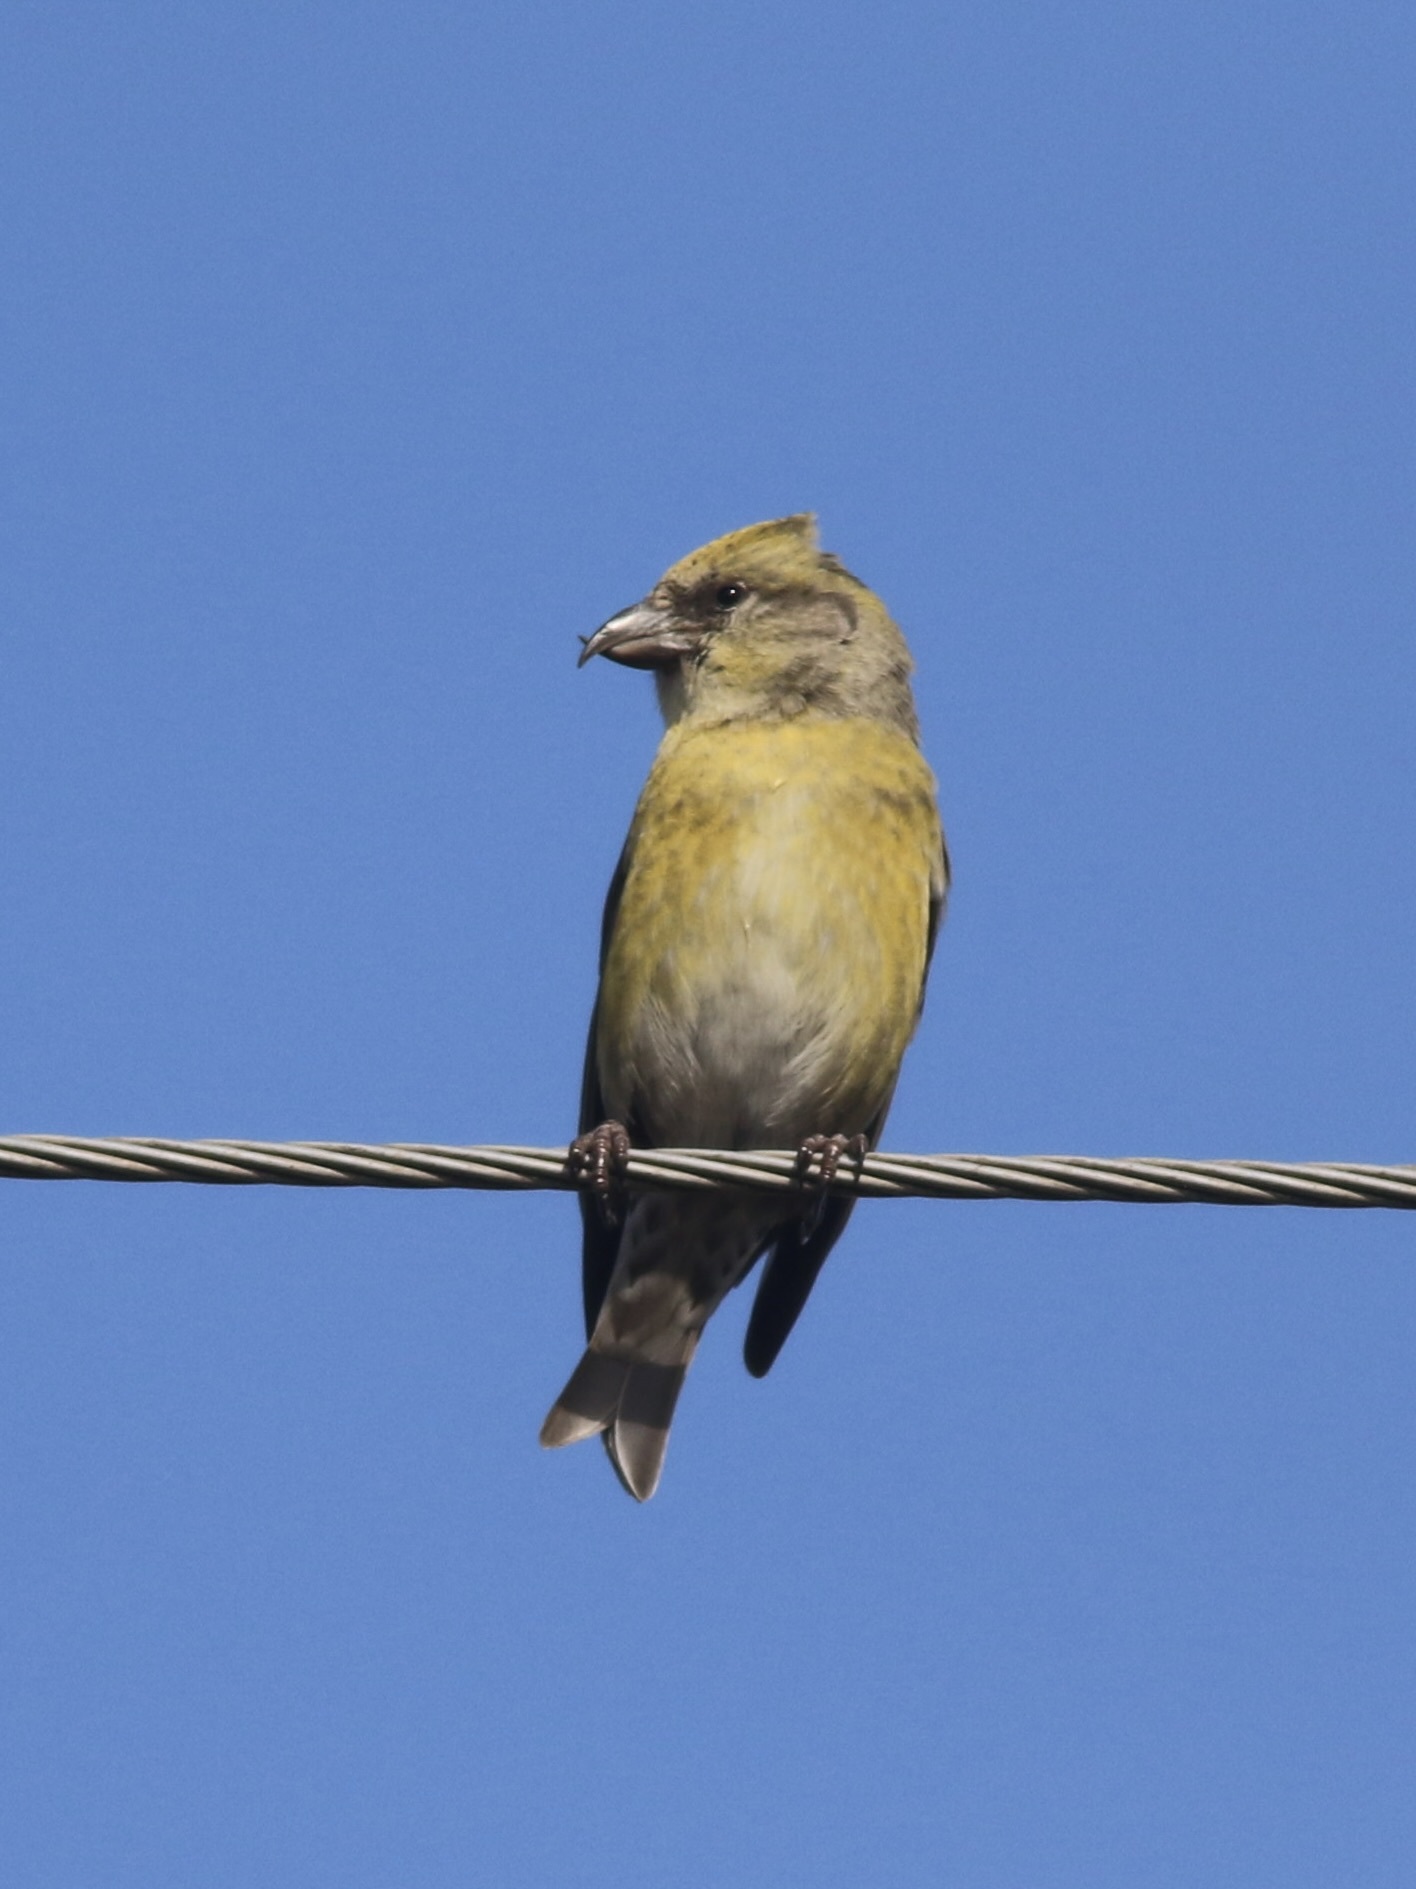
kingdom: Animalia
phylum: Chordata
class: Aves
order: Passeriformes
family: Fringillidae
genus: Loxia
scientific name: Loxia curvirostra
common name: Red crossbill
